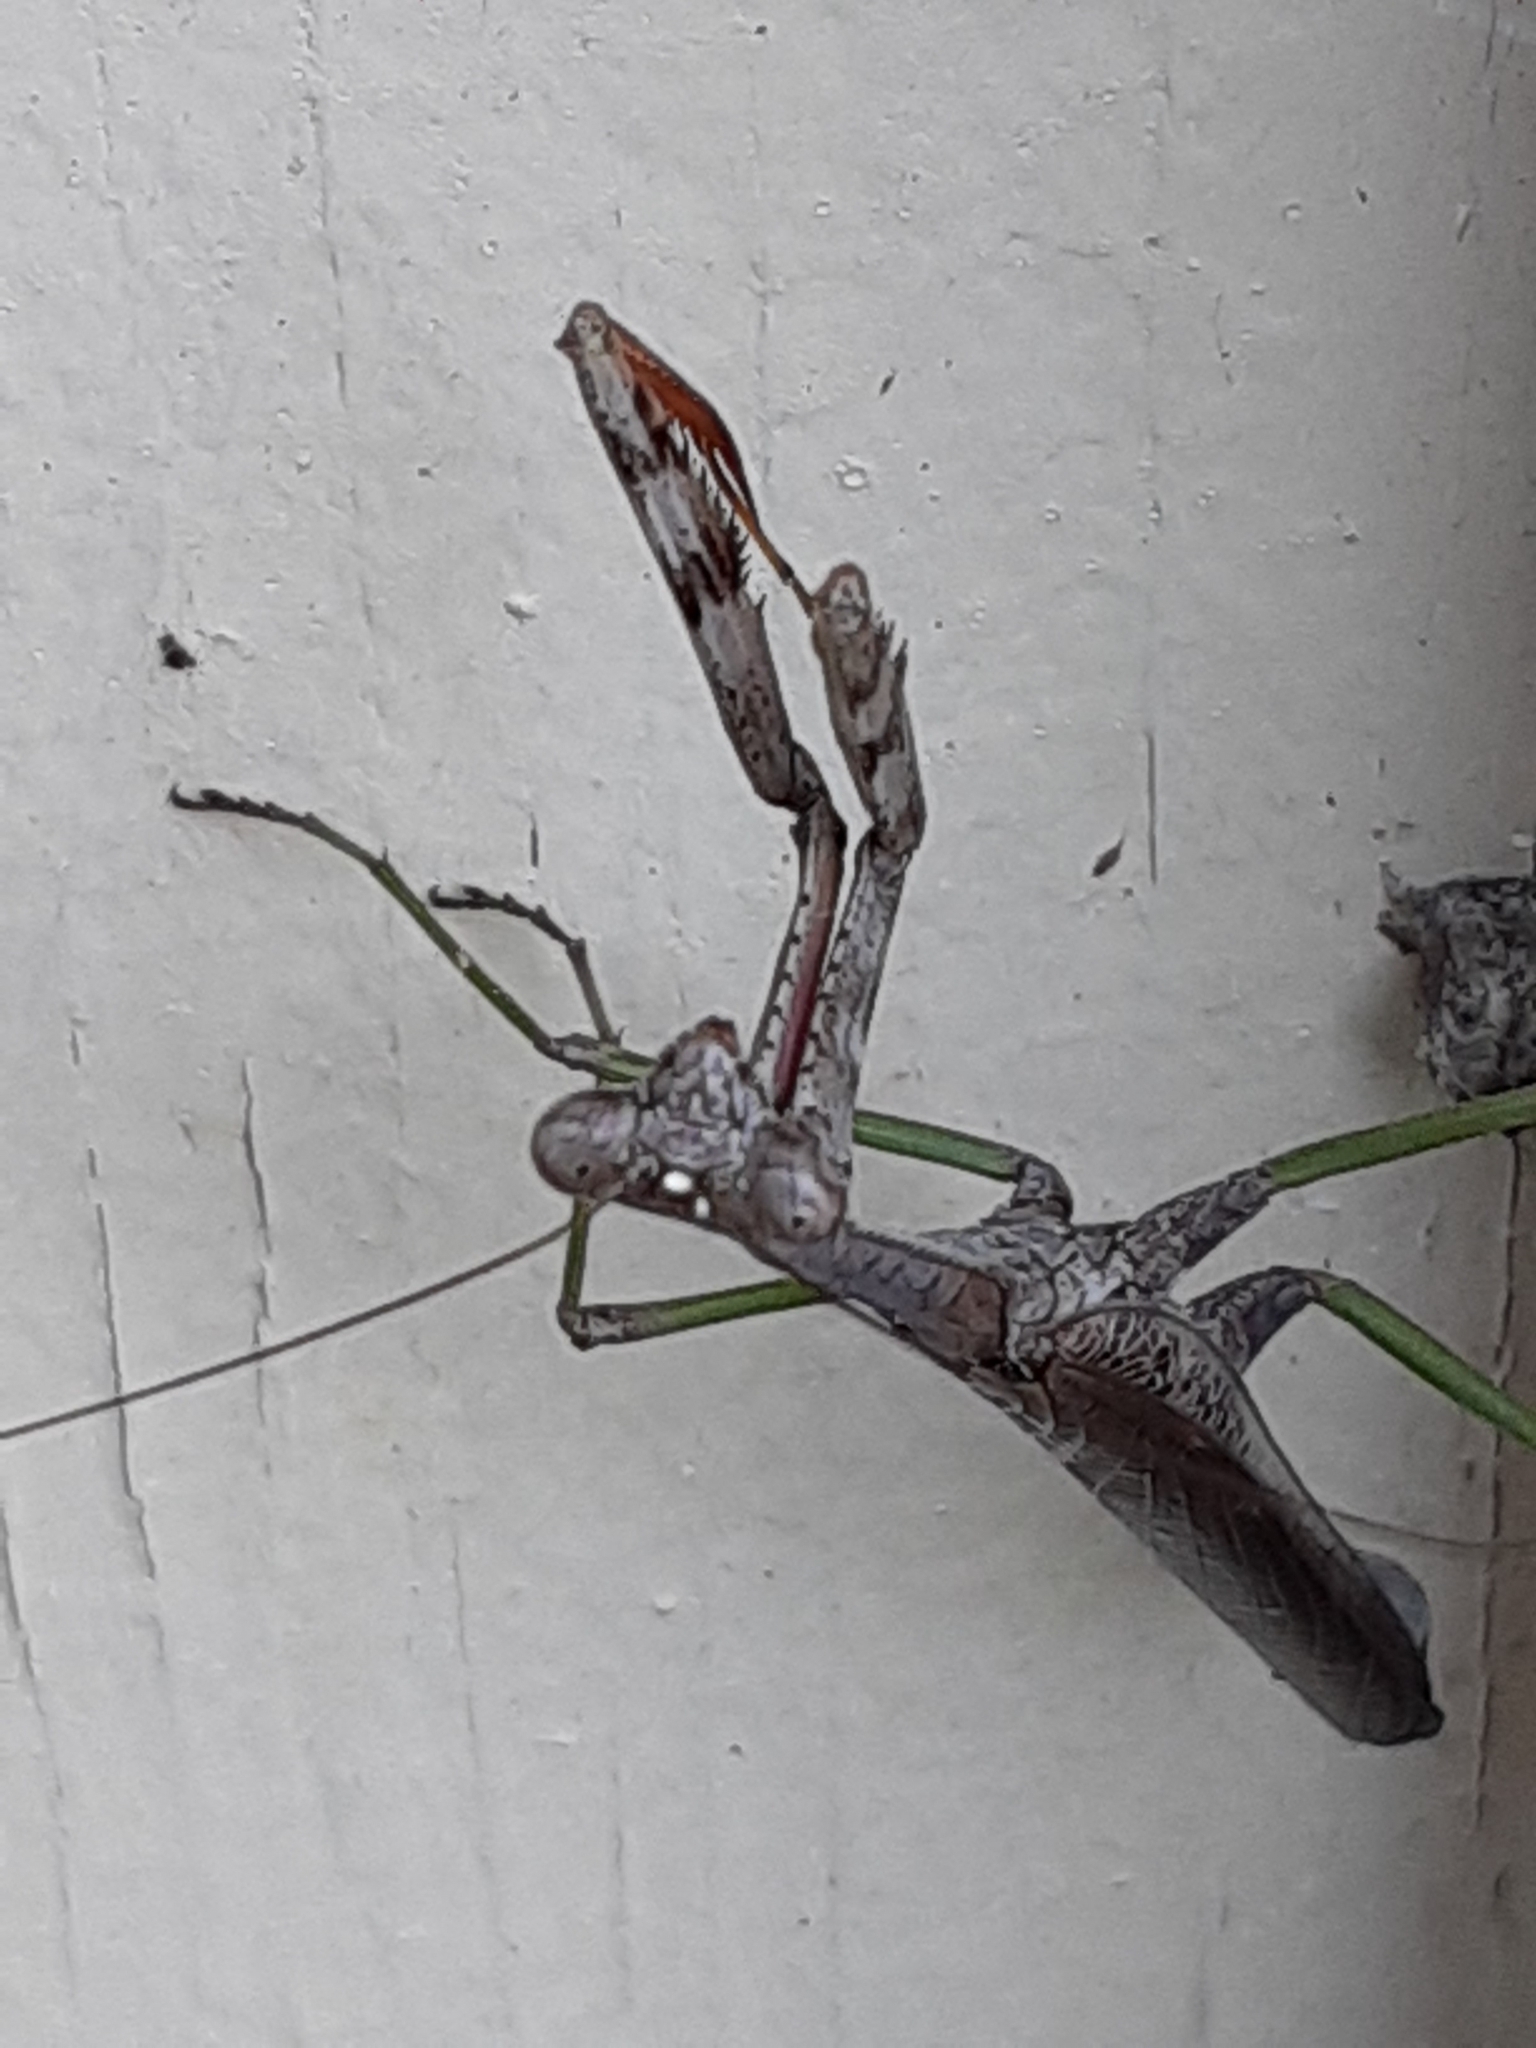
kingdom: Animalia
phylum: Arthropoda
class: Insecta
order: Mantodea
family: Mantidae
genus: Stagmomantis
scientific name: Stagmomantis carolina
